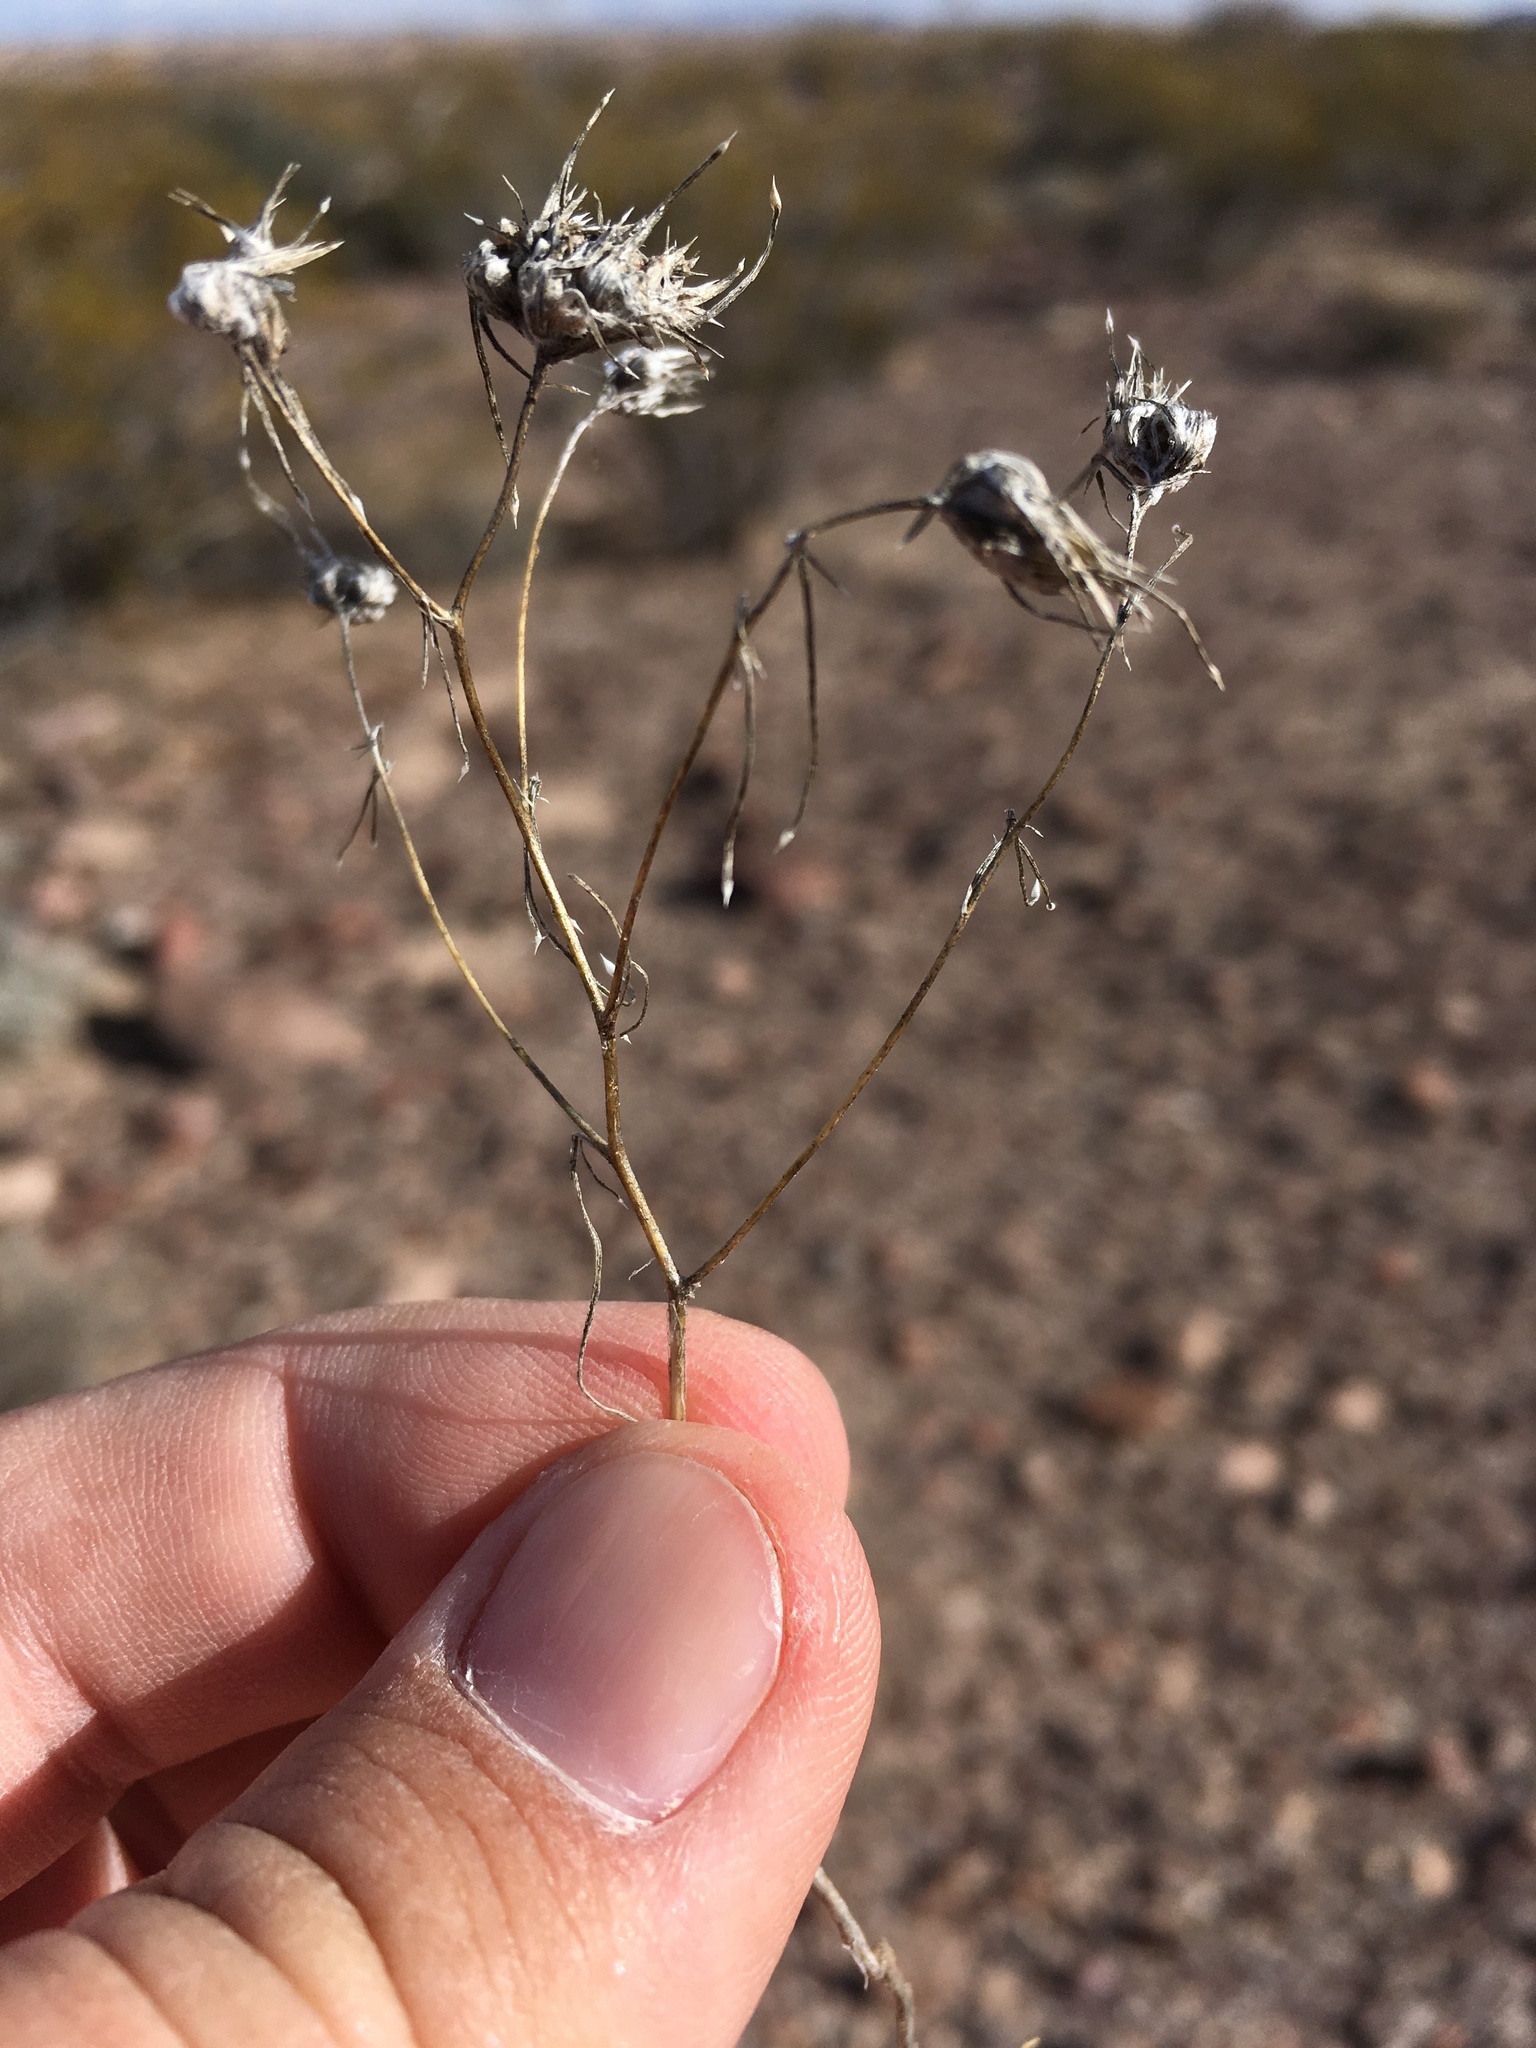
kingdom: Plantae
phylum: Tracheophyta
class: Magnoliopsida
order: Ericales
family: Polemoniaceae
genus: Eriastrum
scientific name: Eriastrum diffusum
